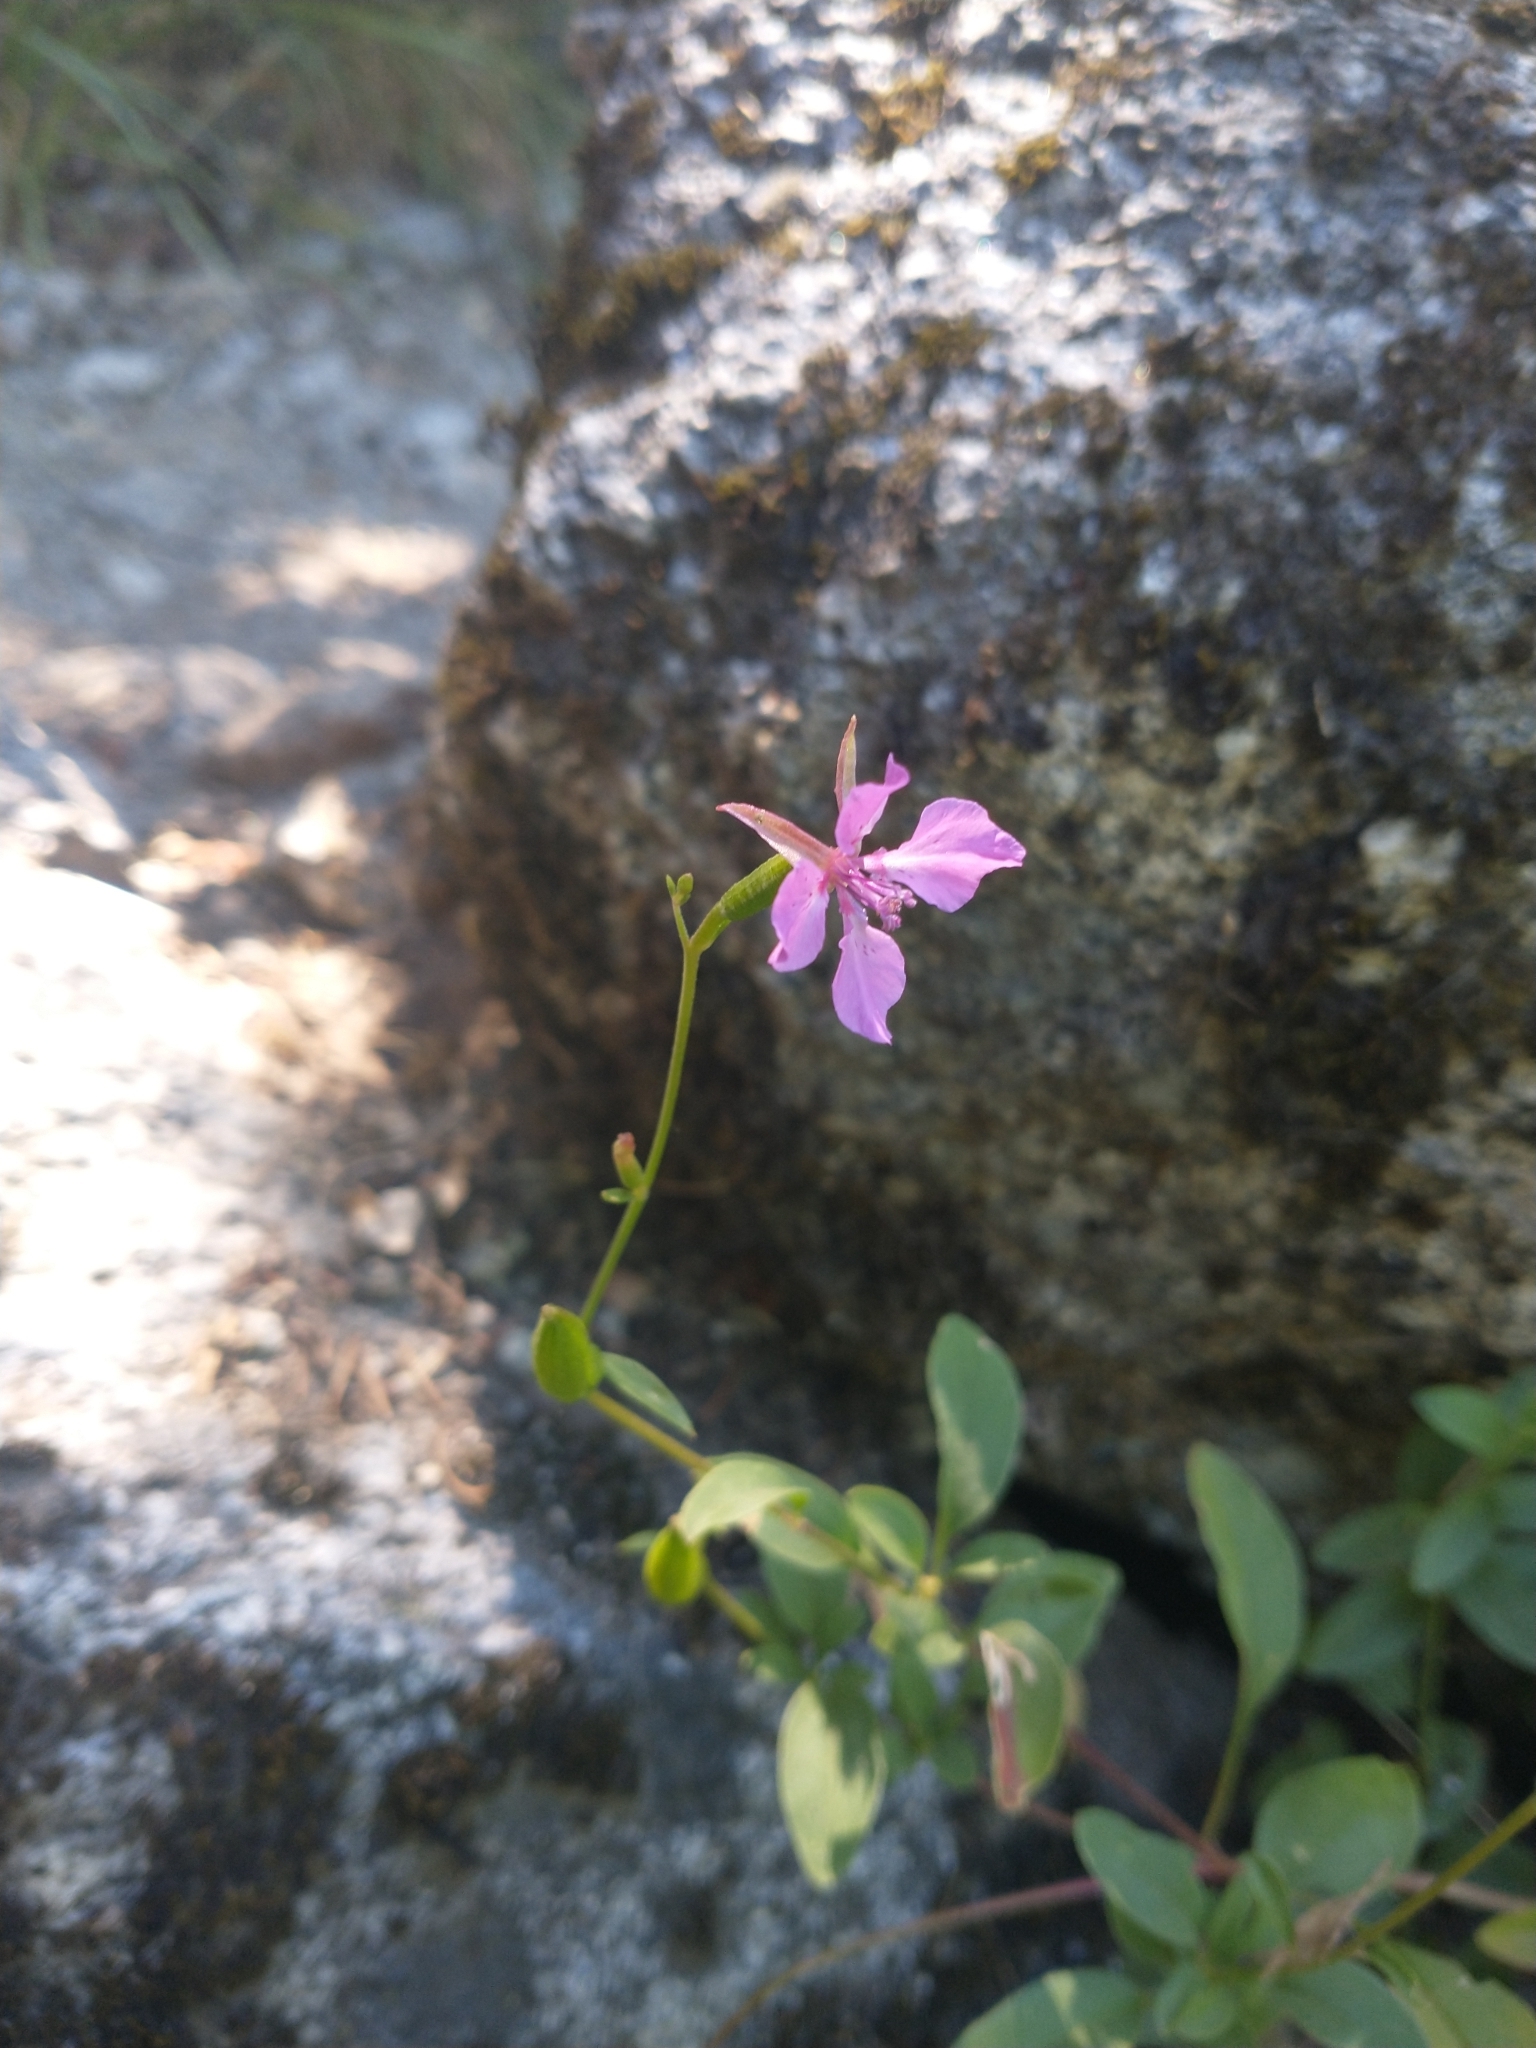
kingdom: Plantae
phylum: Tracheophyta
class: Magnoliopsida
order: Myrtales
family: Onagraceae
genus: Clarkia
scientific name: Clarkia rhomboidea
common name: Broadleaf clarkia
